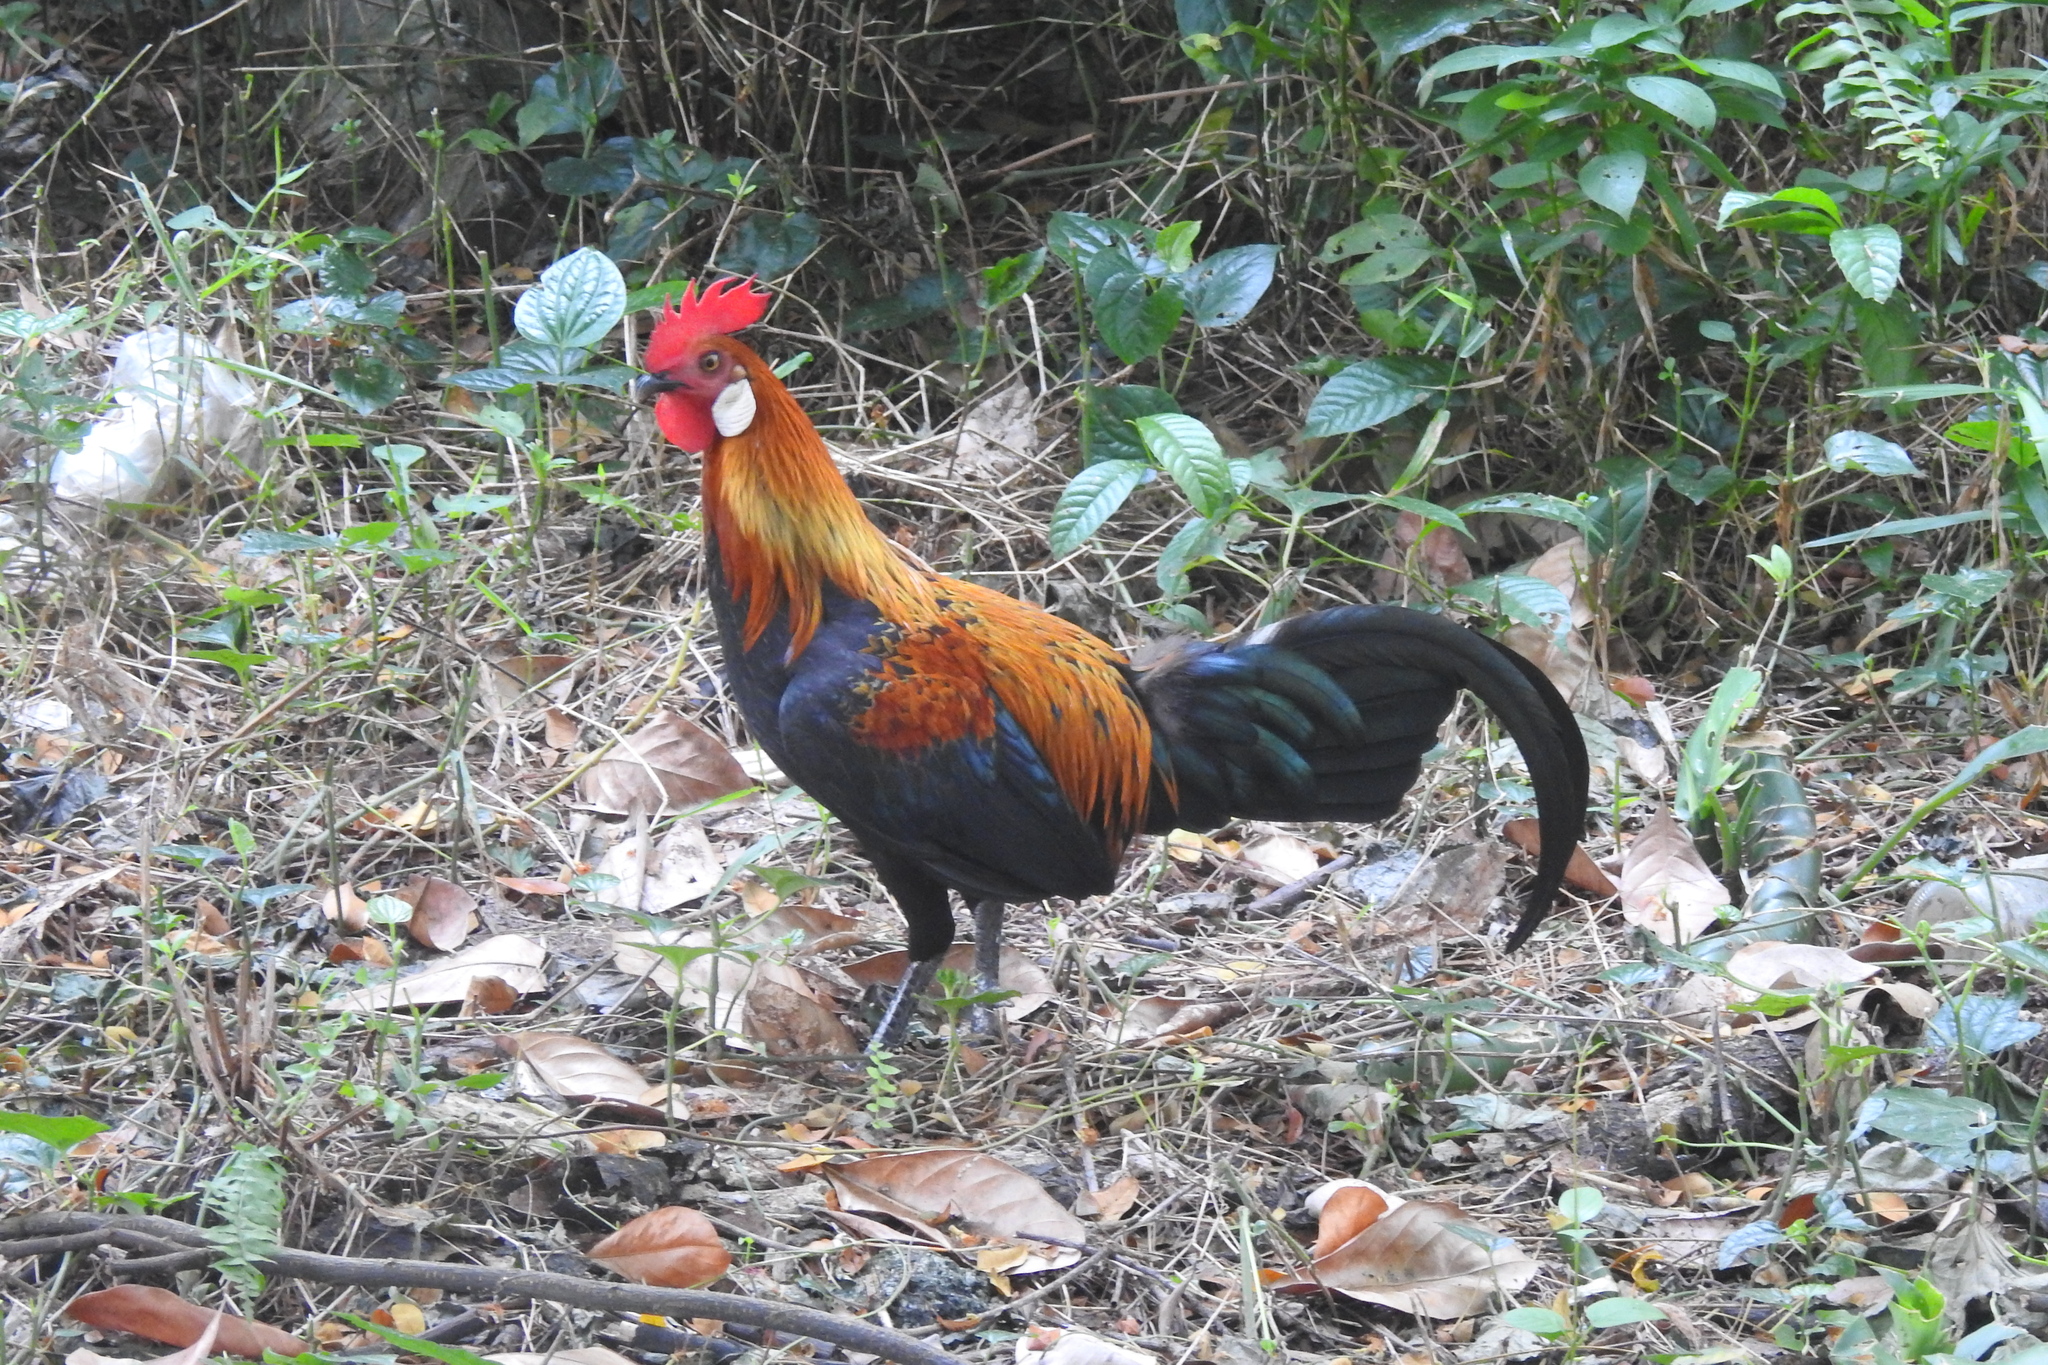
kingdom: Animalia
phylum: Chordata
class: Aves
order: Galliformes
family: Phasianidae
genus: Gallus
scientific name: Gallus gallus
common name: Red junglefowl
